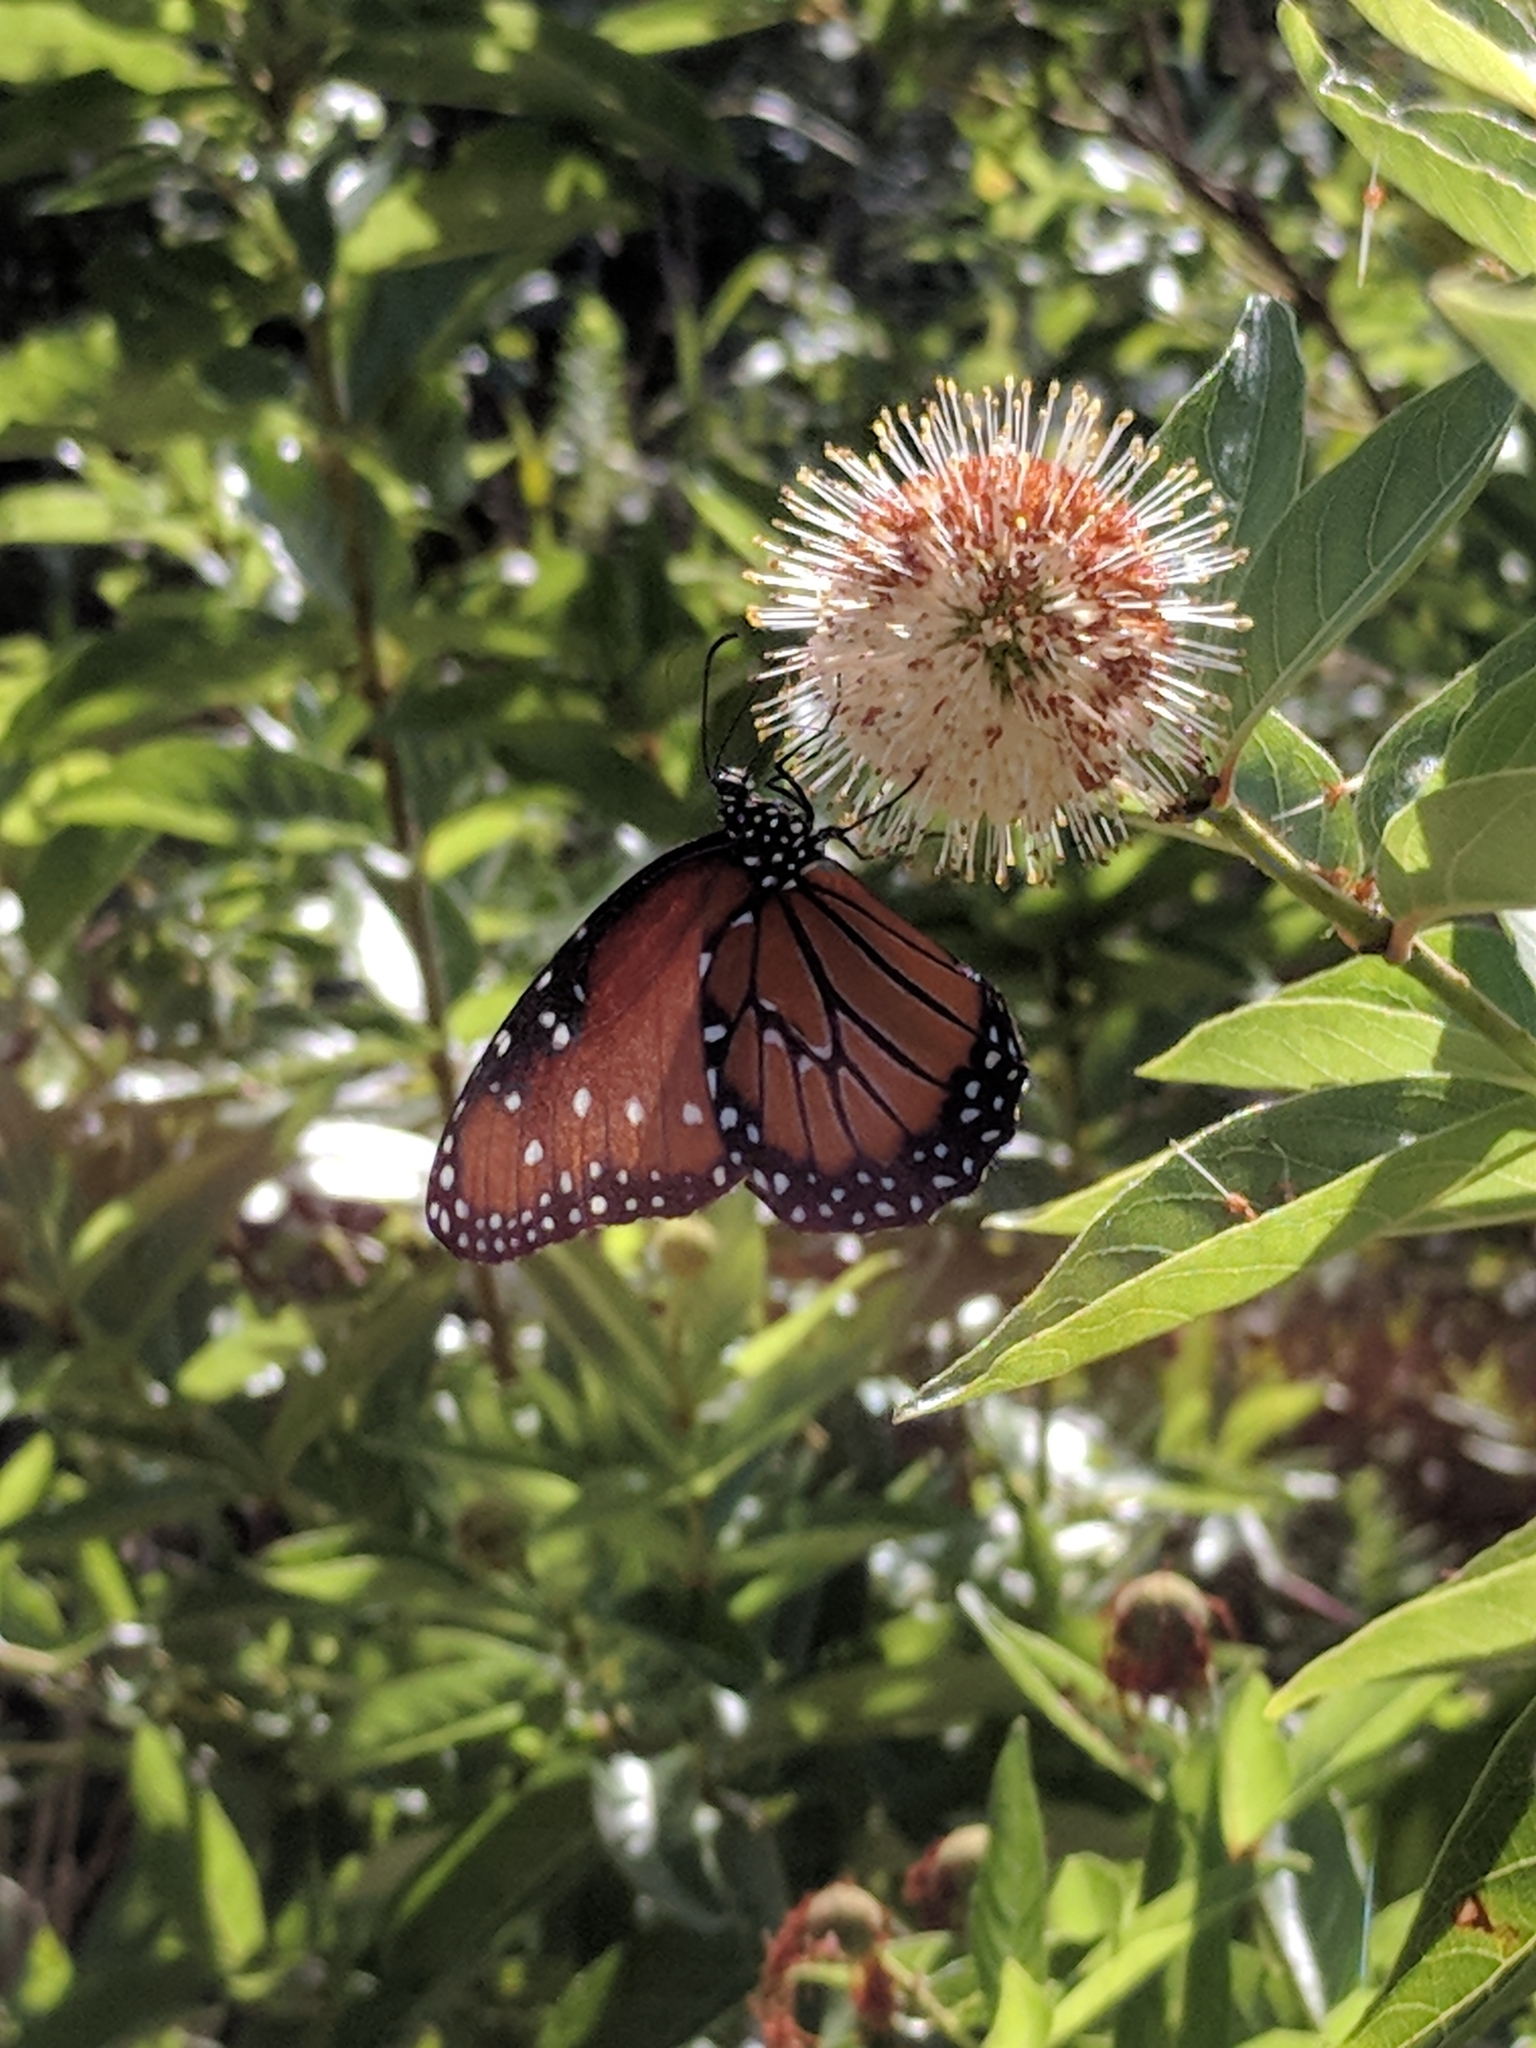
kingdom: Animalia
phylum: Arthropoda
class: Insecta
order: Lepidoptera
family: Nymphalidae
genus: Danaus
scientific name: Danaus gilippus
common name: Queen
